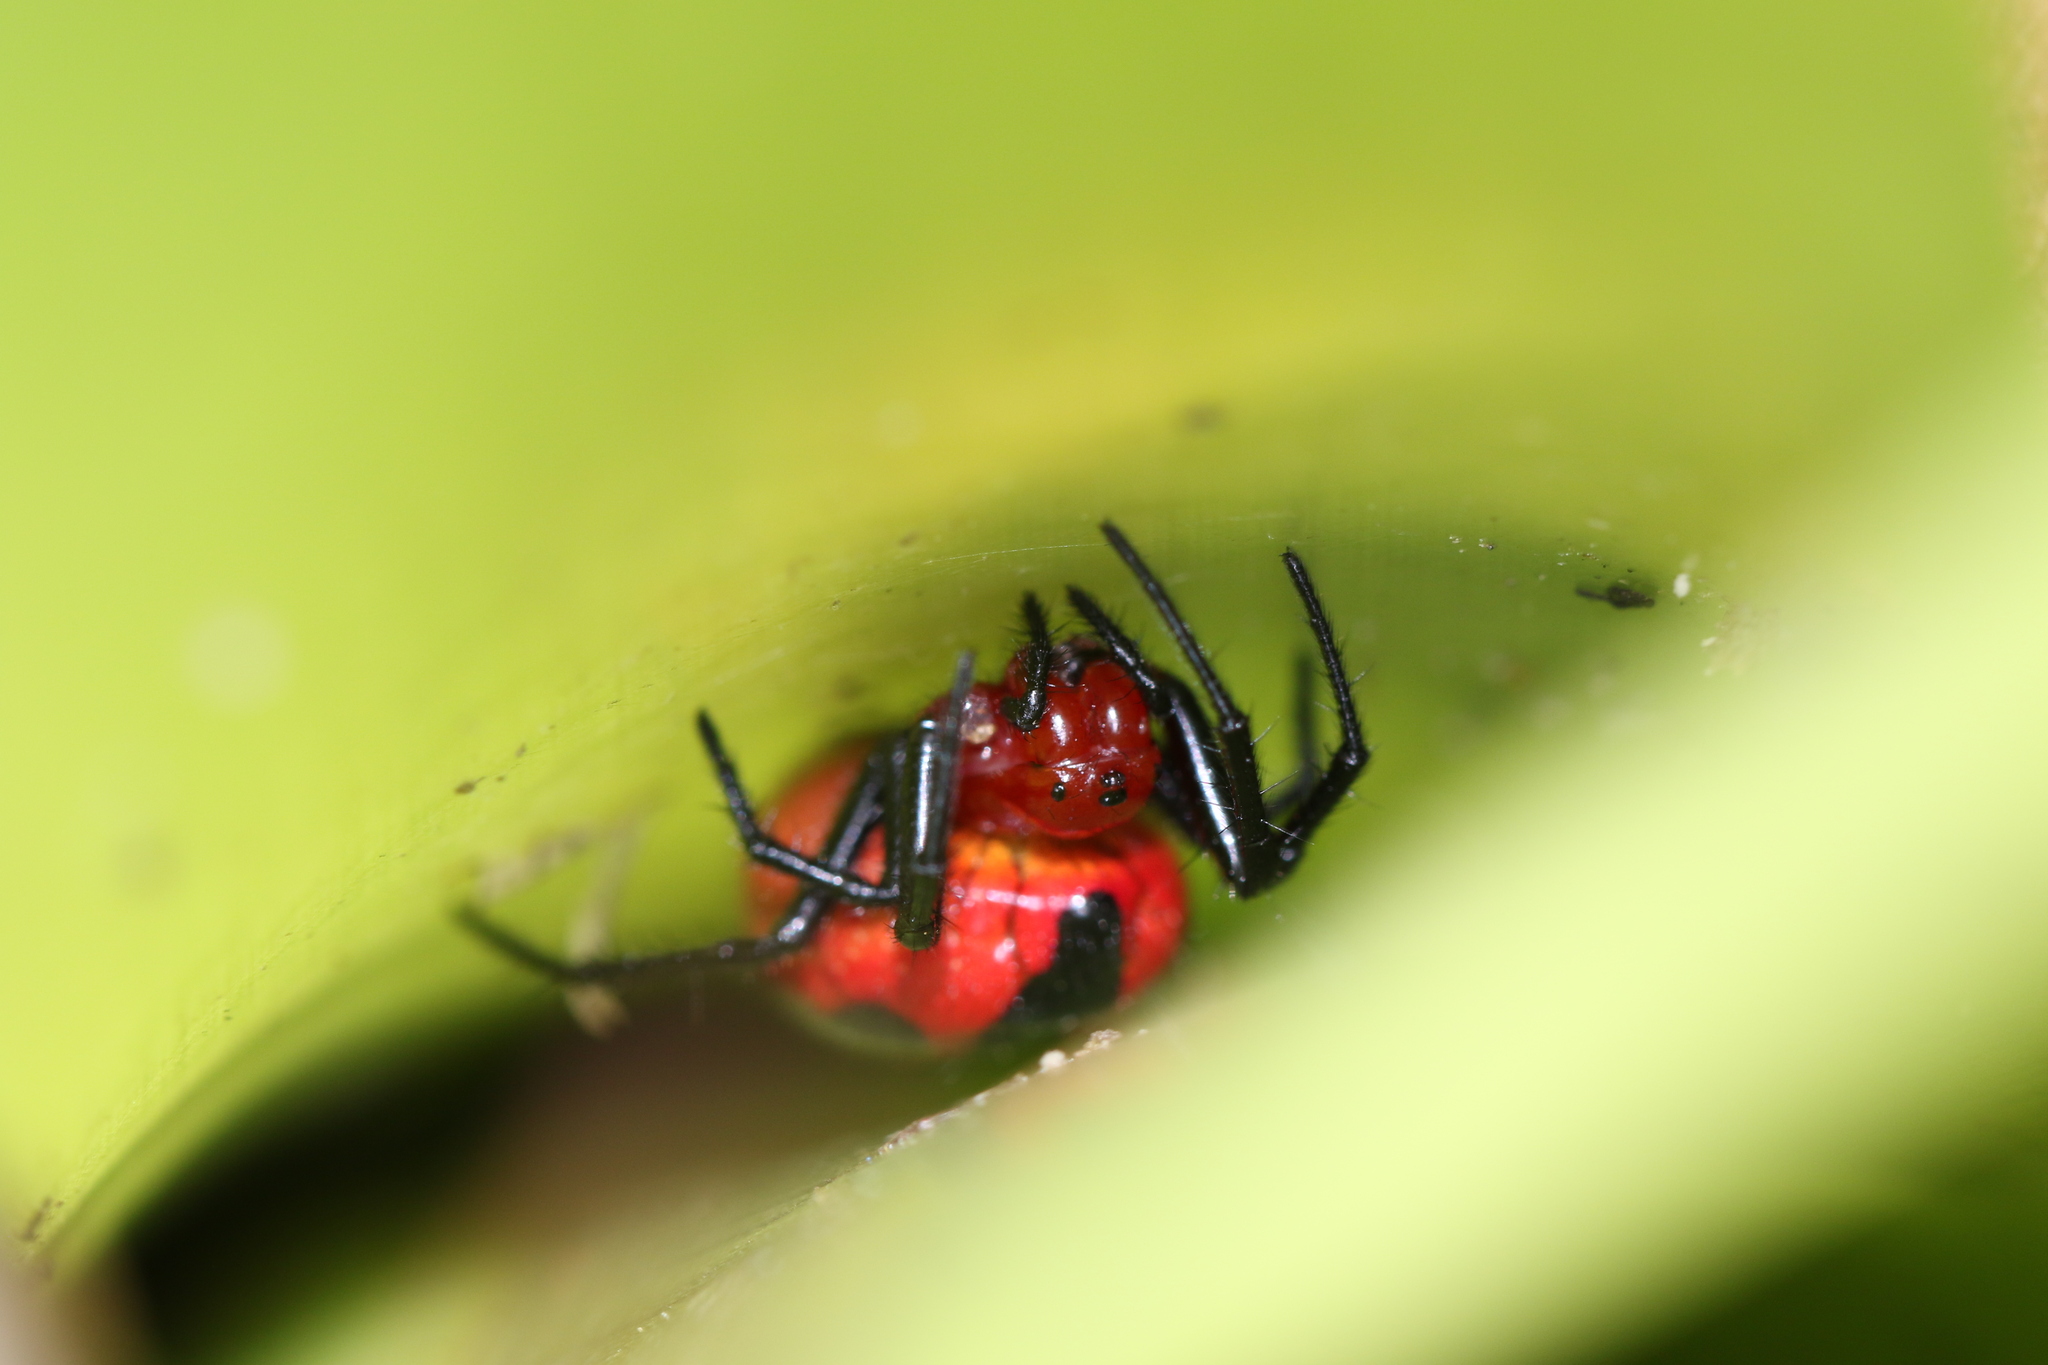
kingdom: Animalia
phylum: Arthropoda
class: Arachnida
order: Araneae
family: Araneidae
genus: Alpaida
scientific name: Alpaida angra
